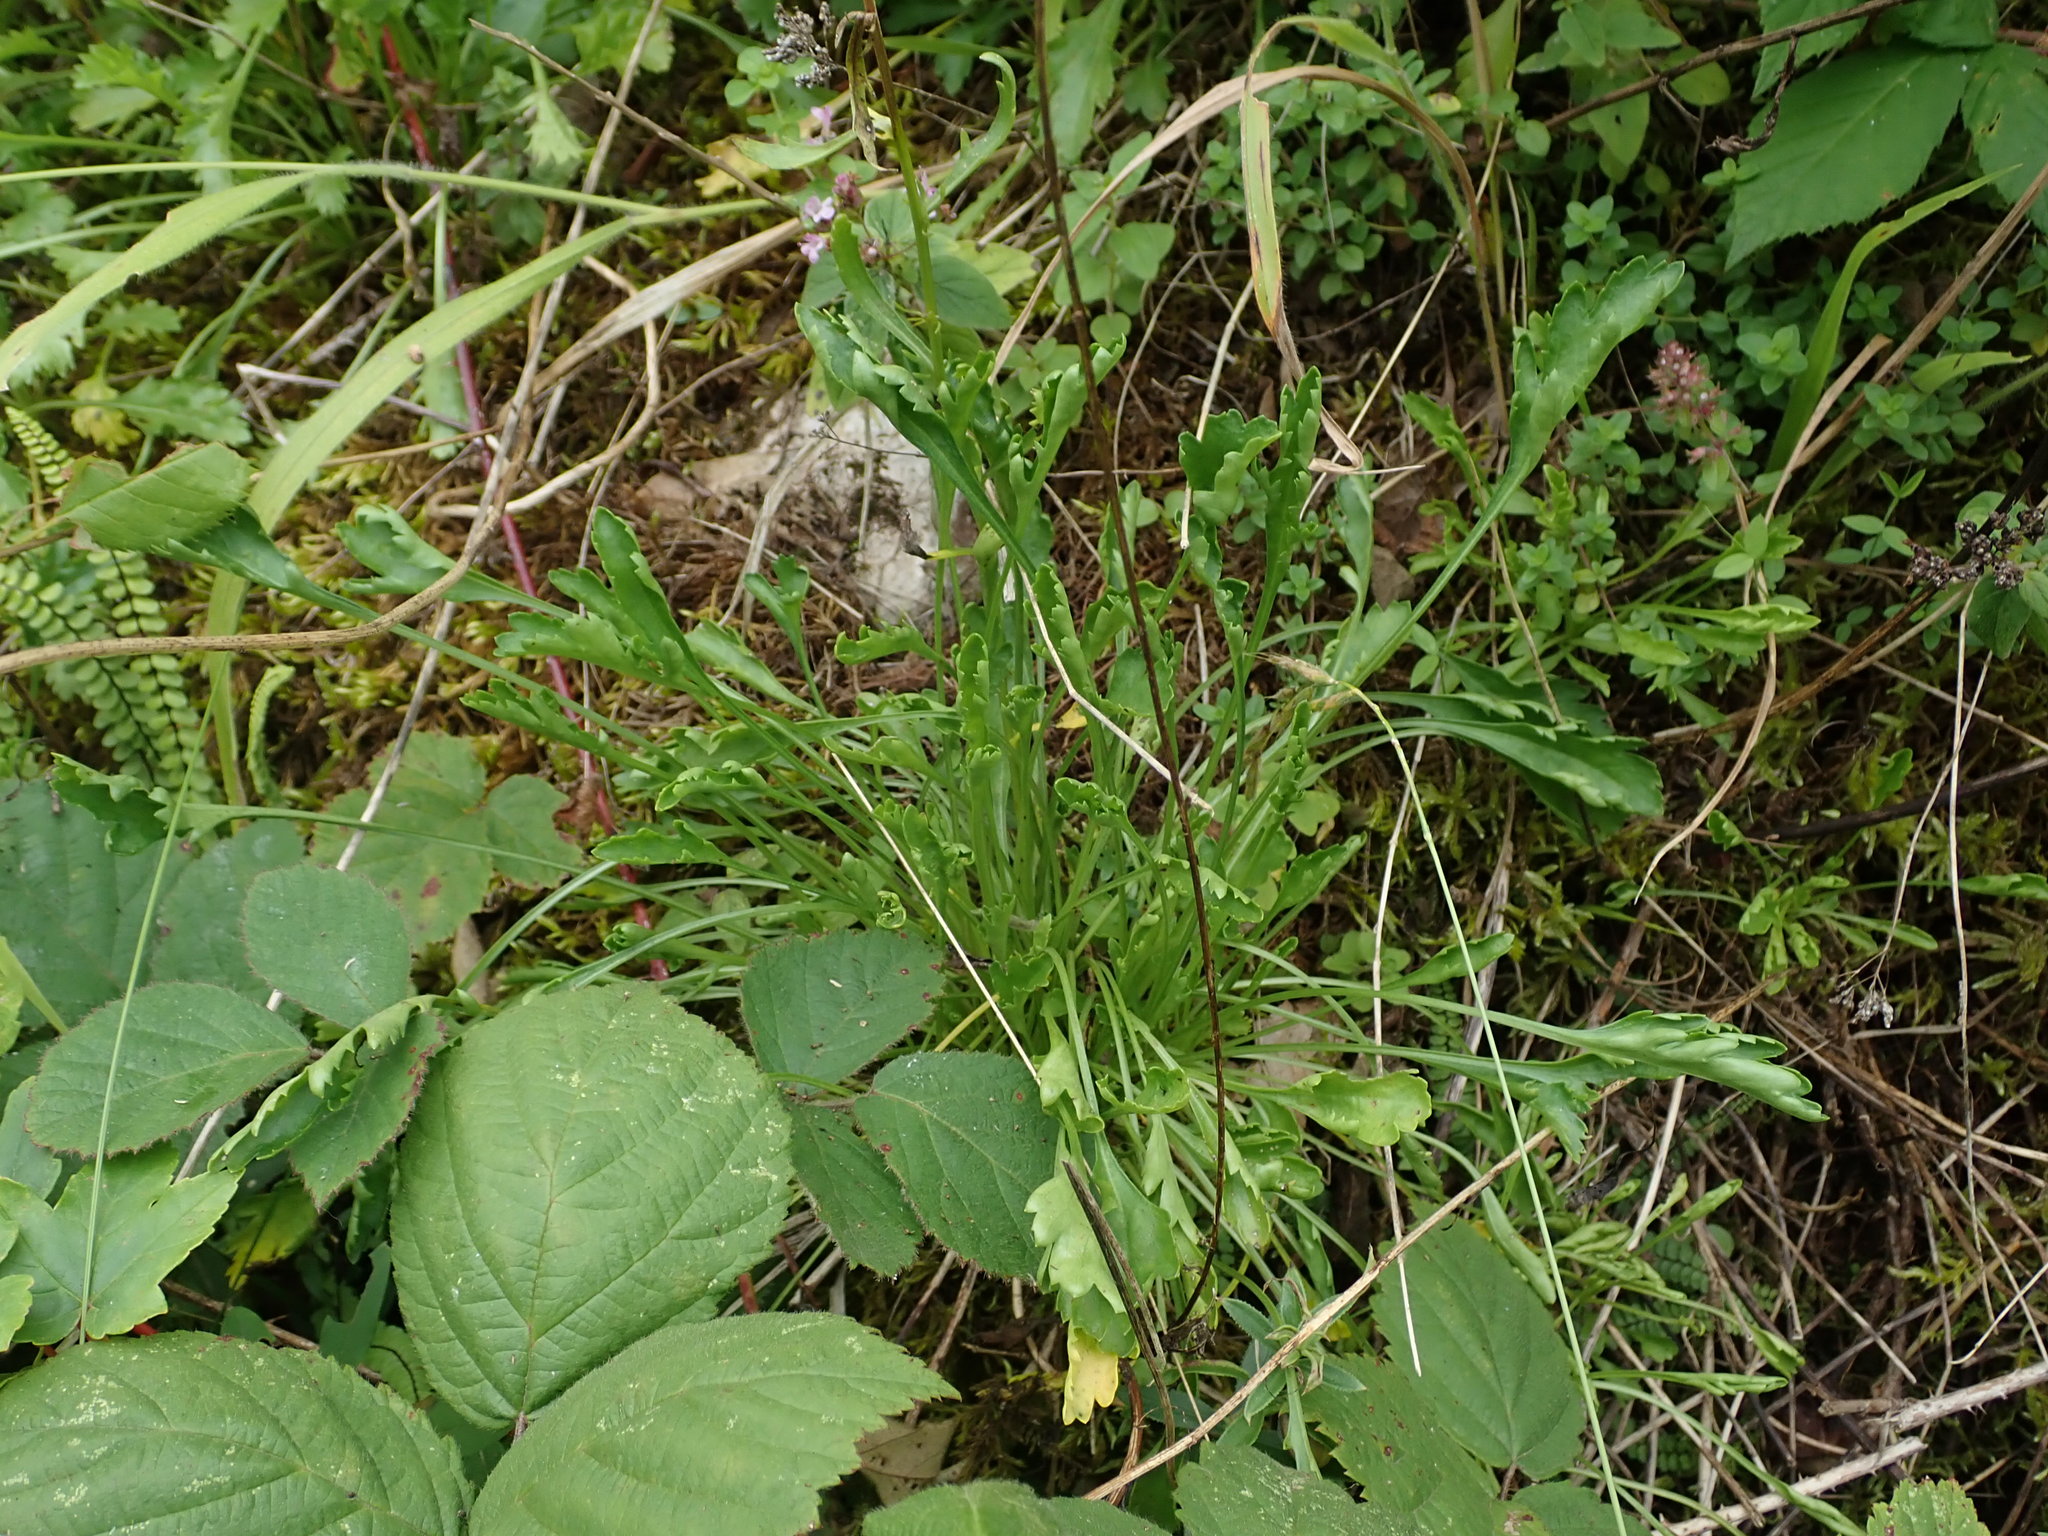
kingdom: Plantae
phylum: Tracheophyta
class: Magnoliopsida
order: Asterales
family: Asteraceae
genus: Leucanthemum
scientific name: Leucanthemum vulgare
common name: Oxeye daisy
